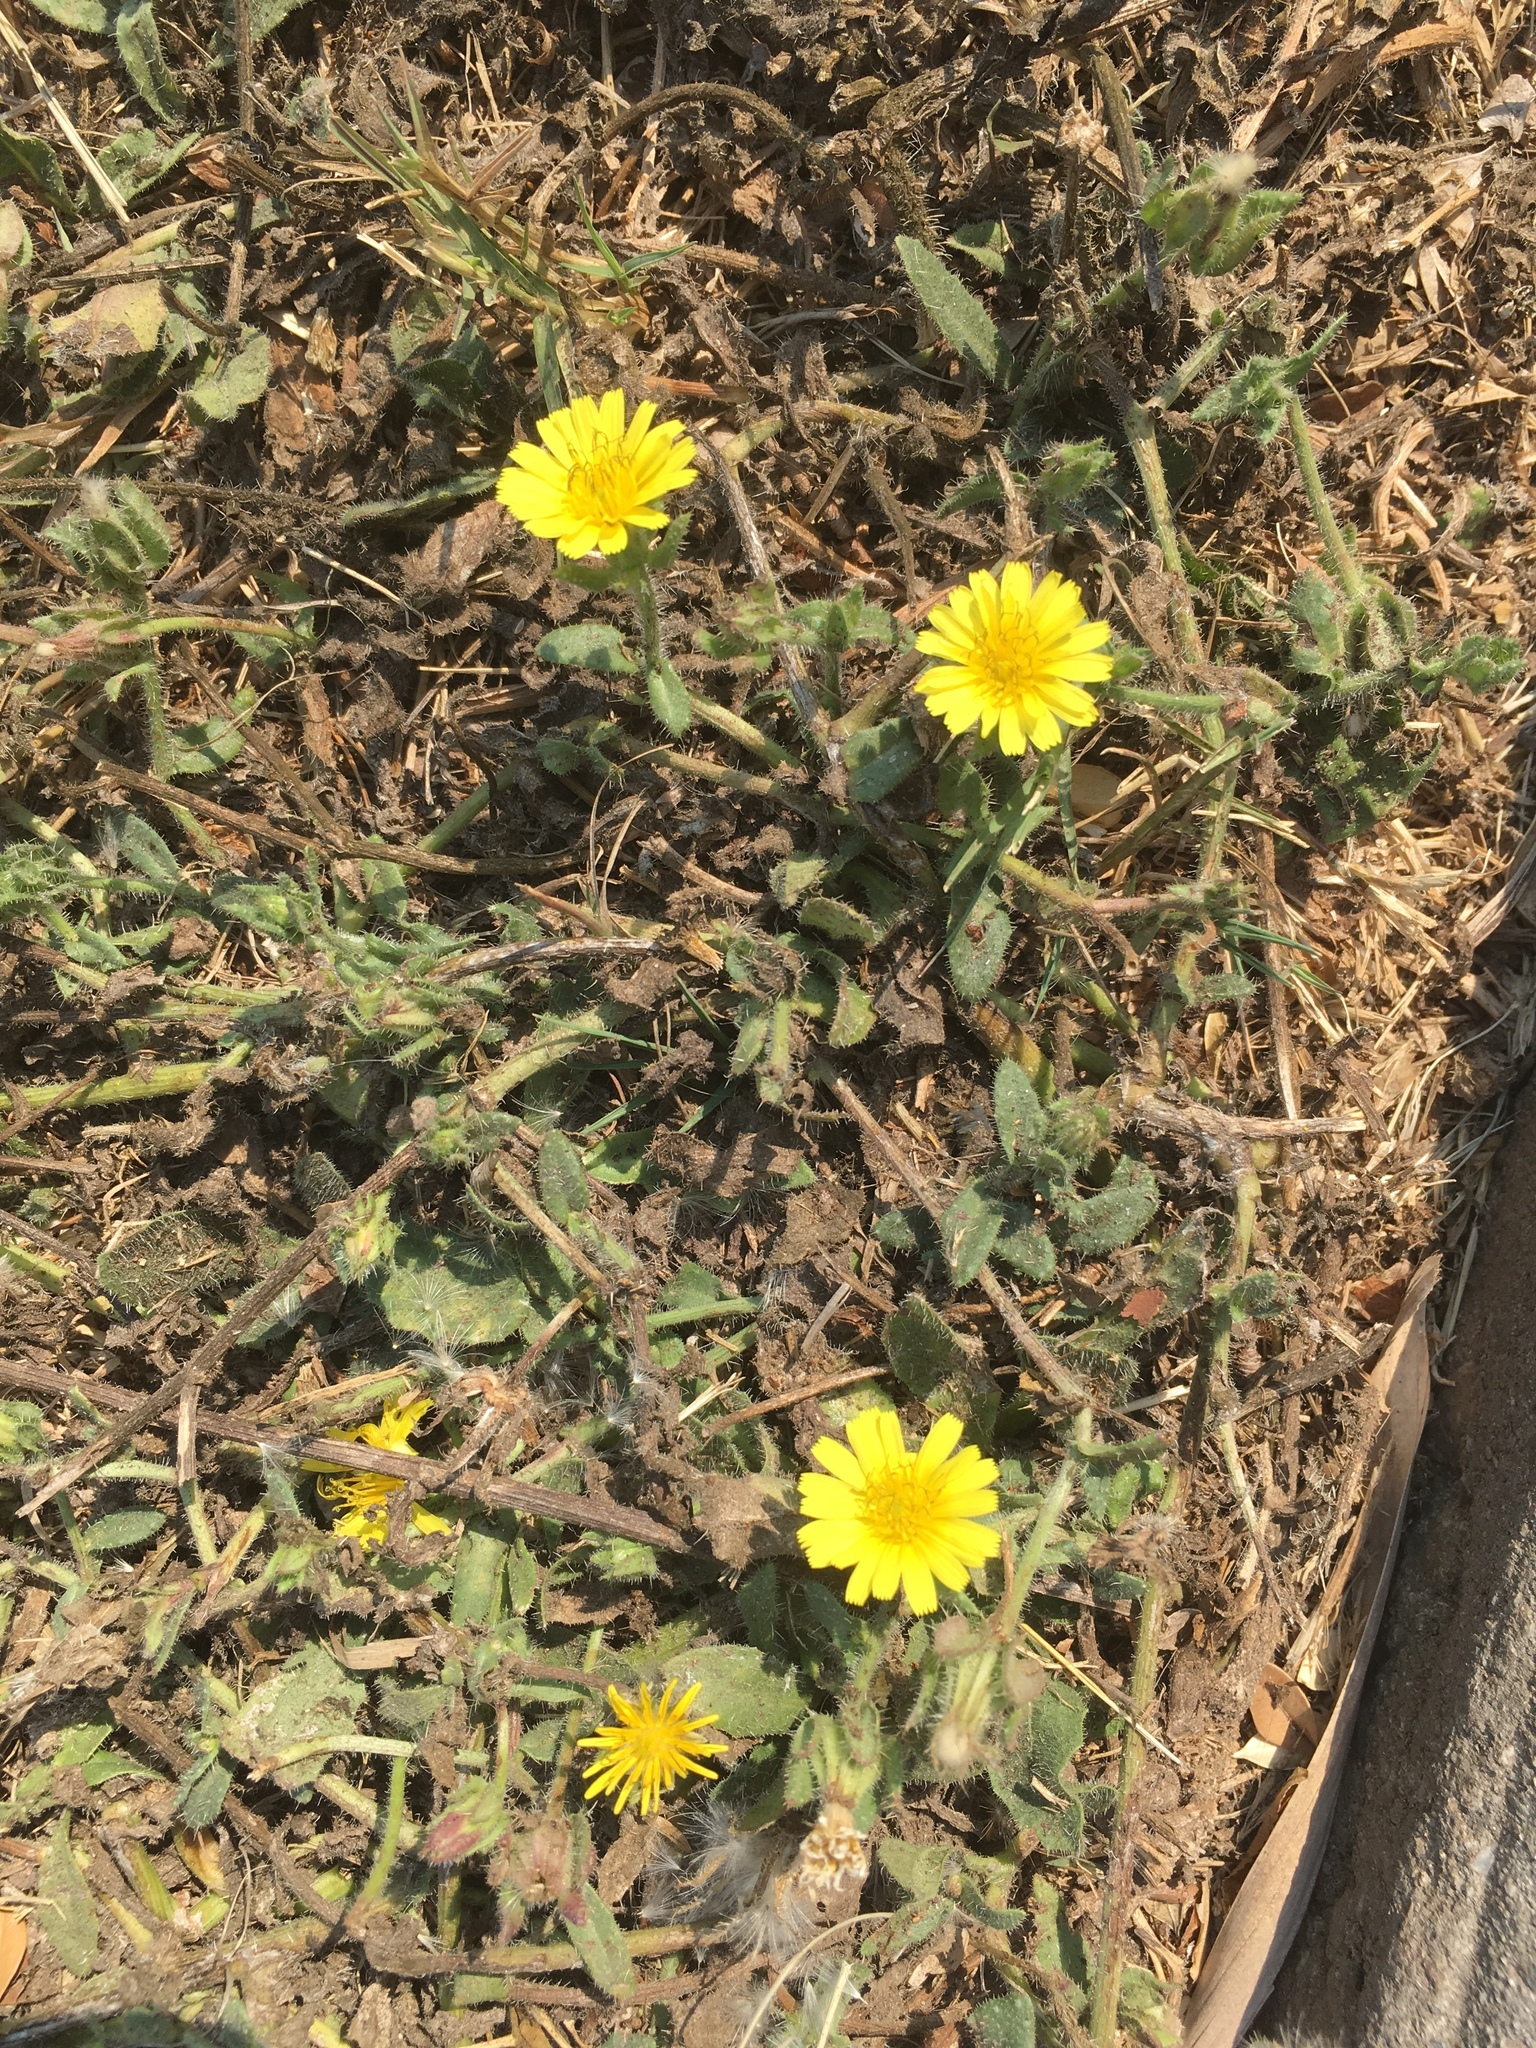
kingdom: Plantae
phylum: Tracheophyta
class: Magnoliopsida
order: Asterales
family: Asteraceae
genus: Helminthotheca
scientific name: Helminthotheca echioides
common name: Ox-tongue
